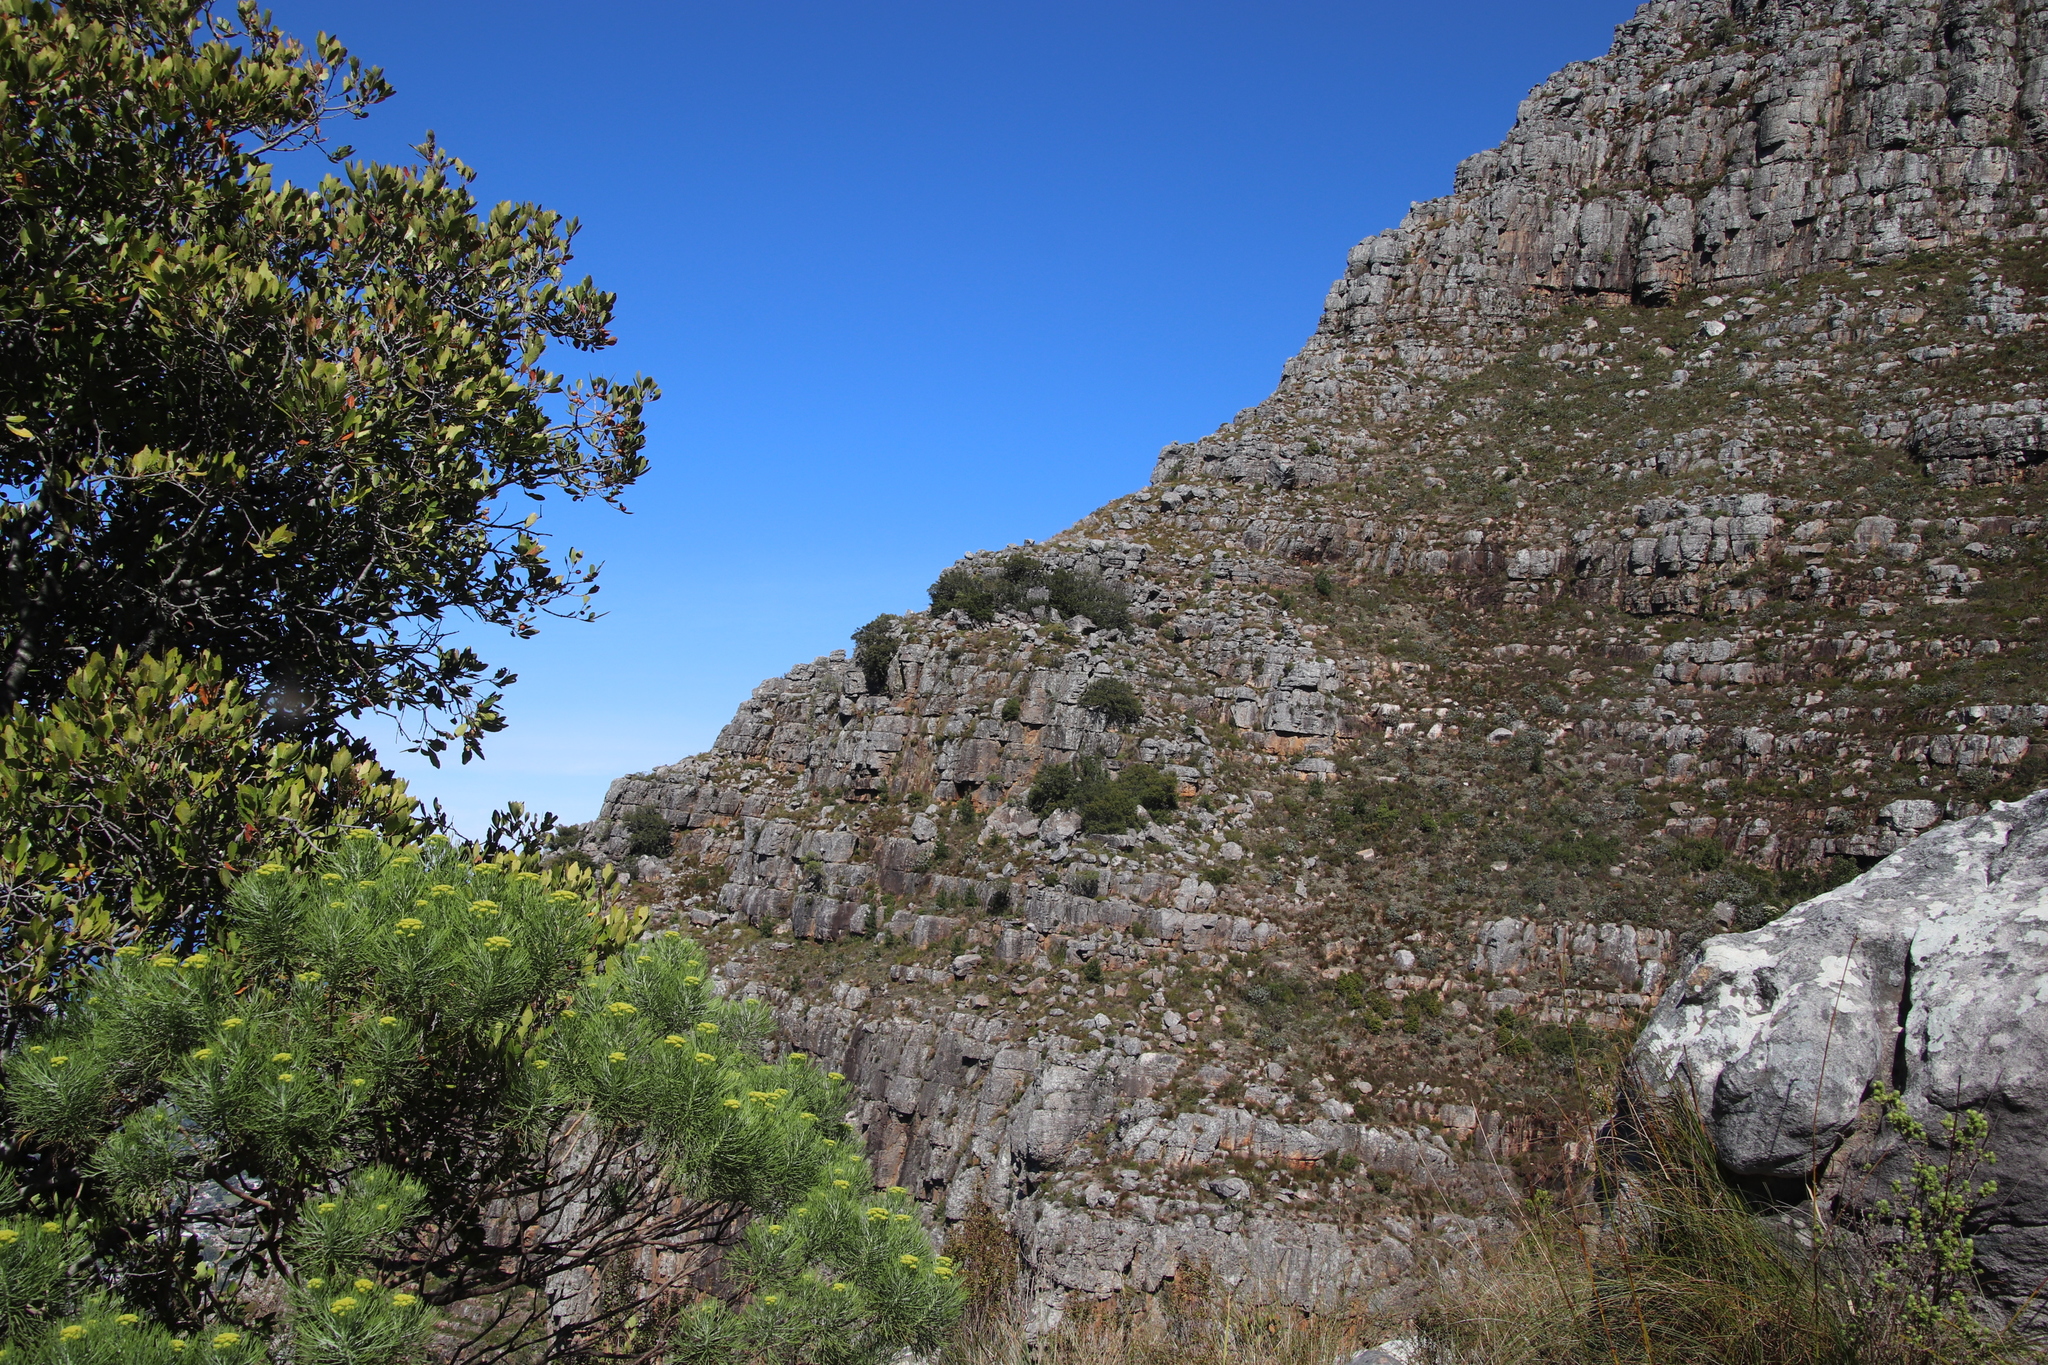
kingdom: Plantae
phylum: Tracheophyta
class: Pinopsida
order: Pinales
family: Podocarpaceae
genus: Podocarpus
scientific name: Podocarpus latifolius
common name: True yellowwood
